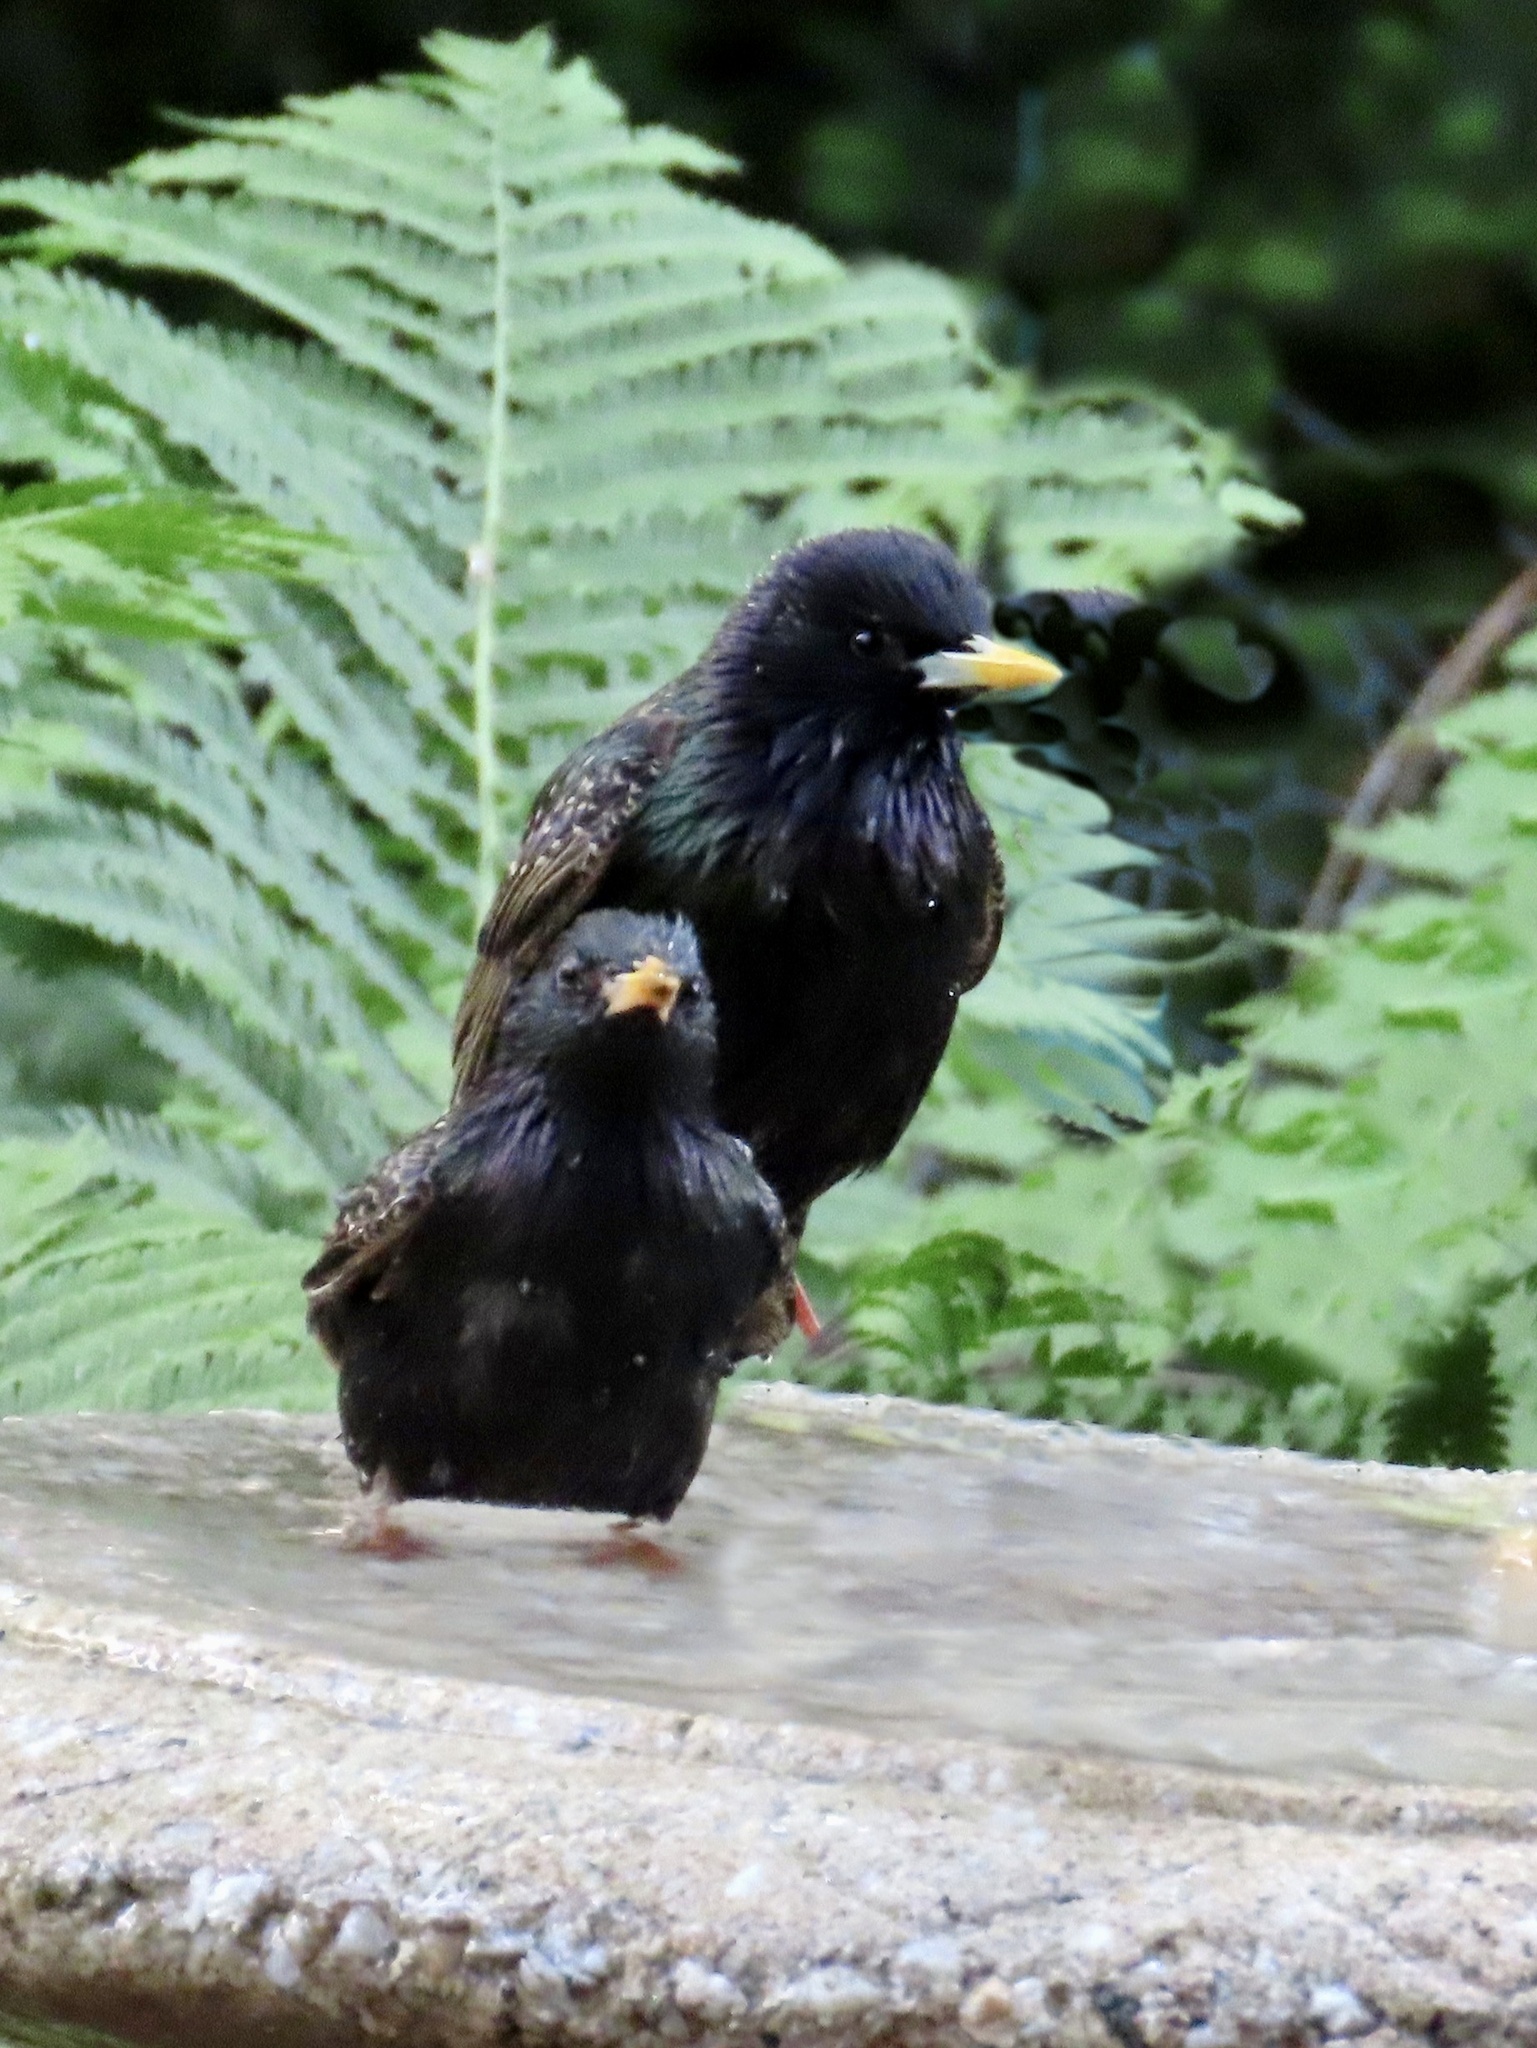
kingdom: Animalia
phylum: Chordata
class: Aves
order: Passeriformes
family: Sturnidae
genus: Sturnus
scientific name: Sturnus vulgaris
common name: Common starling
